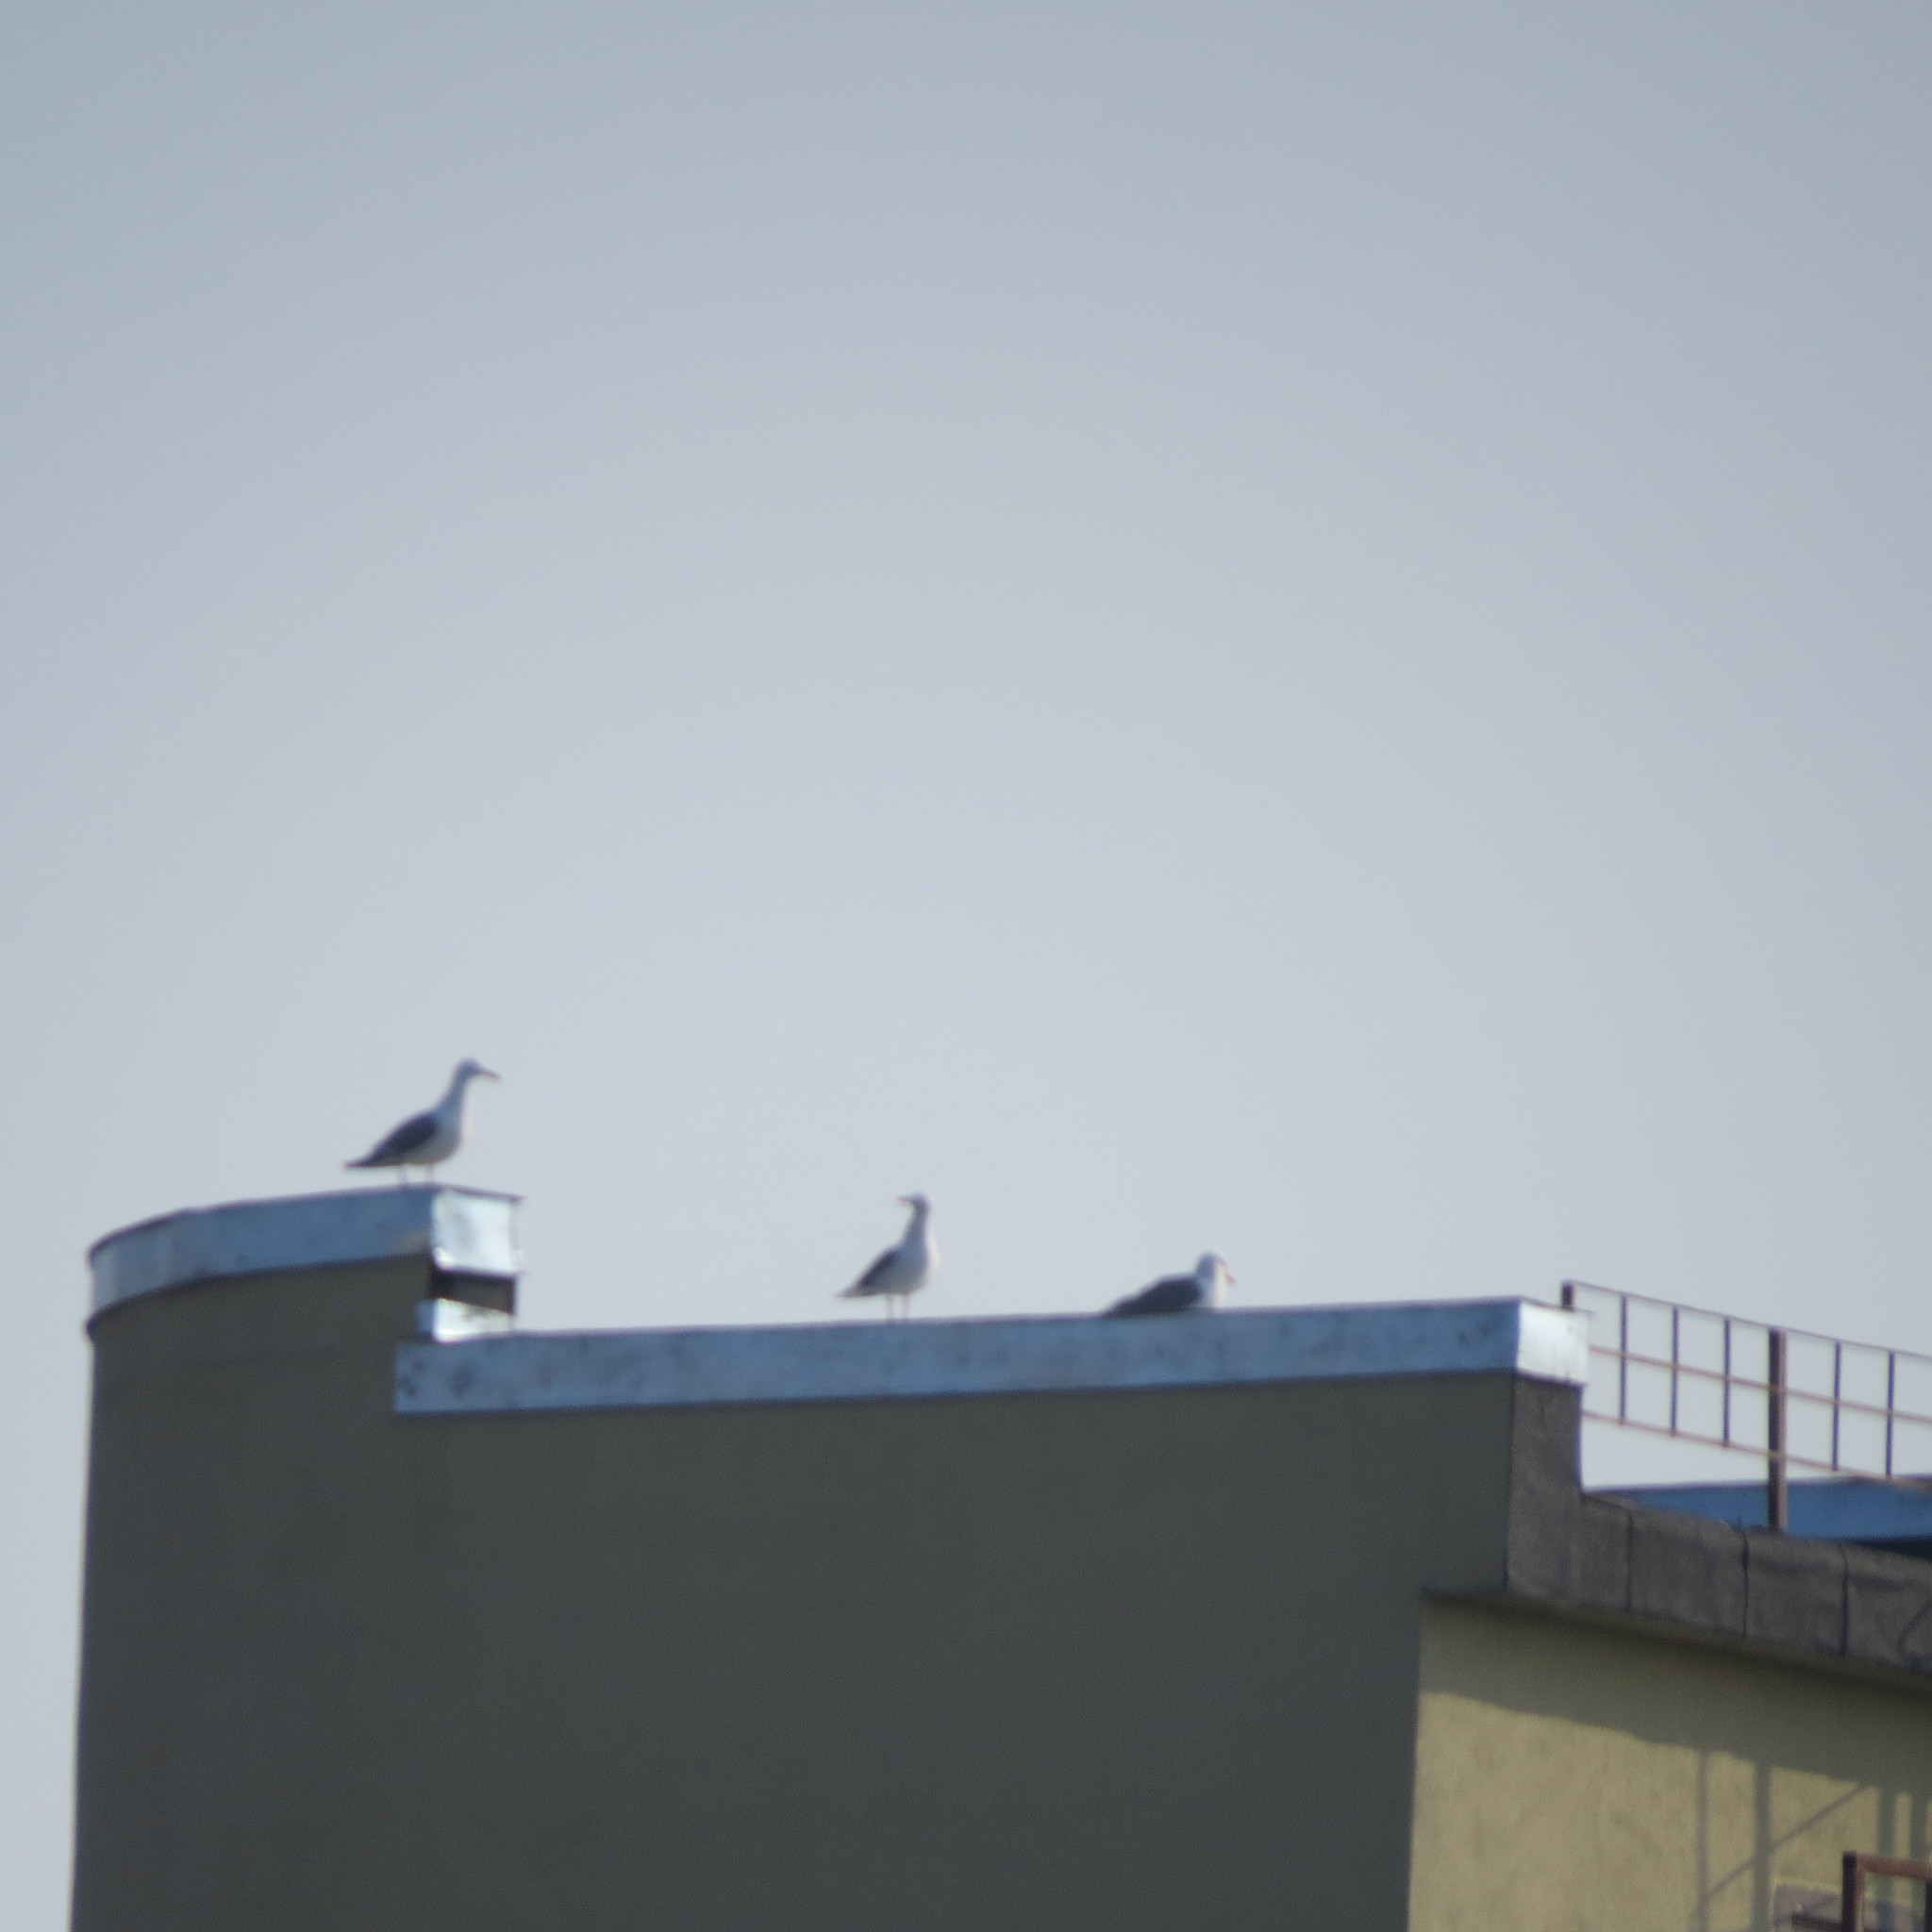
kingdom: Animalia
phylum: Chordata
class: Aves
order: Charadriiformes
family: Laridae
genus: Larus
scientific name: Larus argentatus
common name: Herring gull
